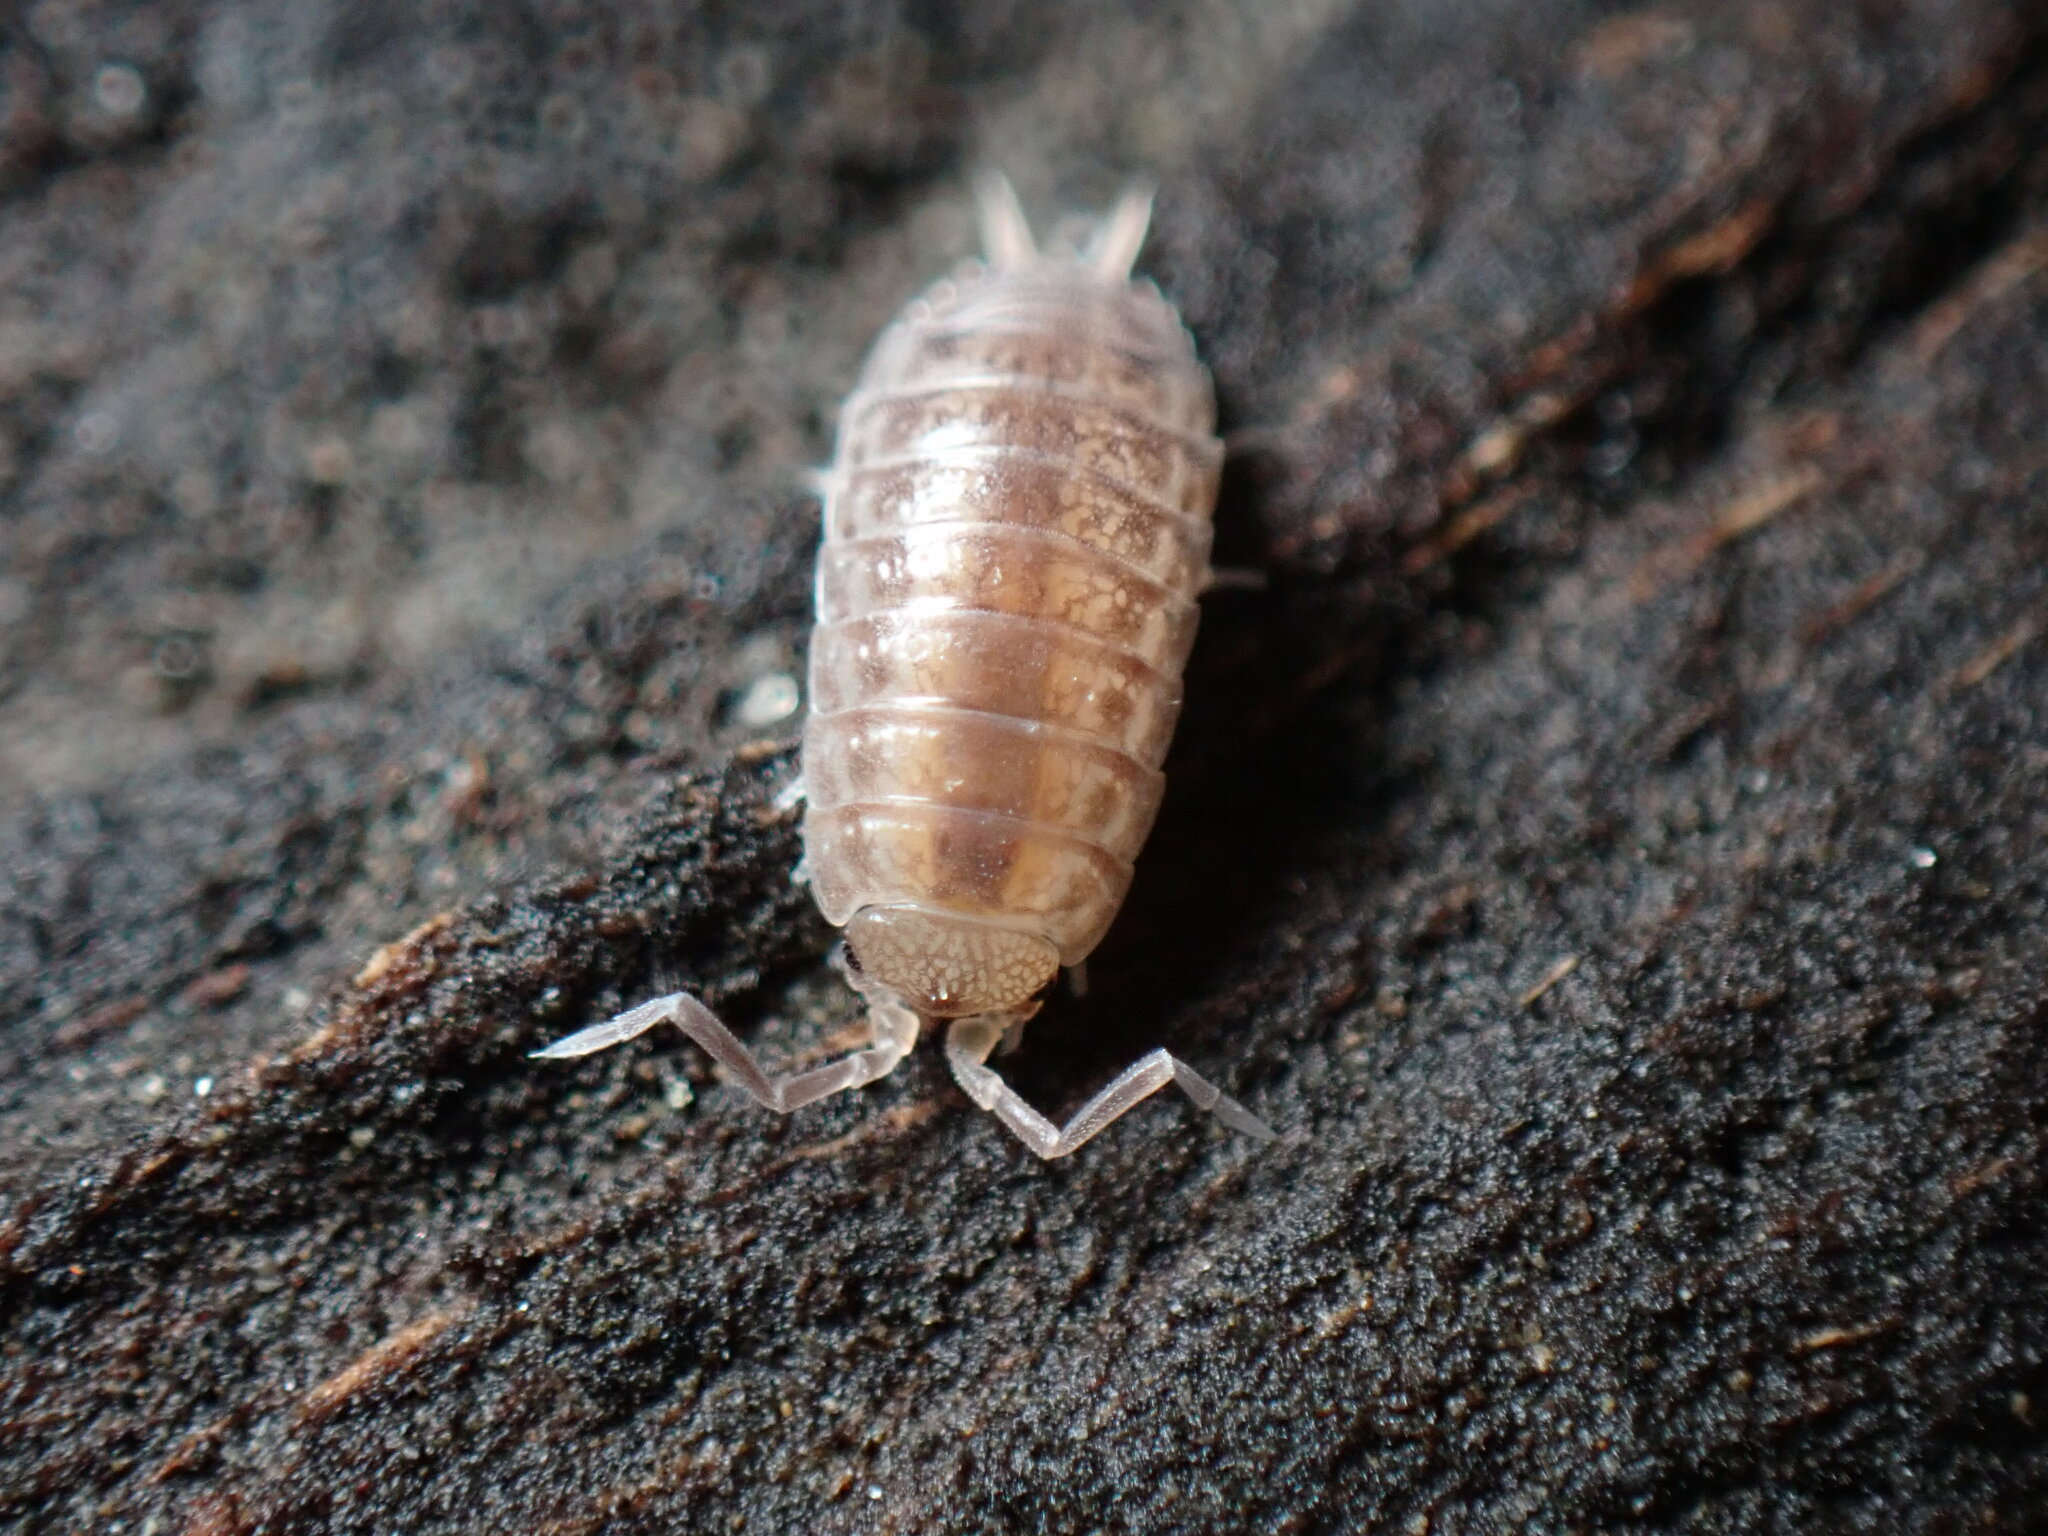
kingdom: Animalia
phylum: Arthropoda
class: Malacostraca
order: Isopoda
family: Porcellionidae
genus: Porcellio
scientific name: Porcellio dispar
